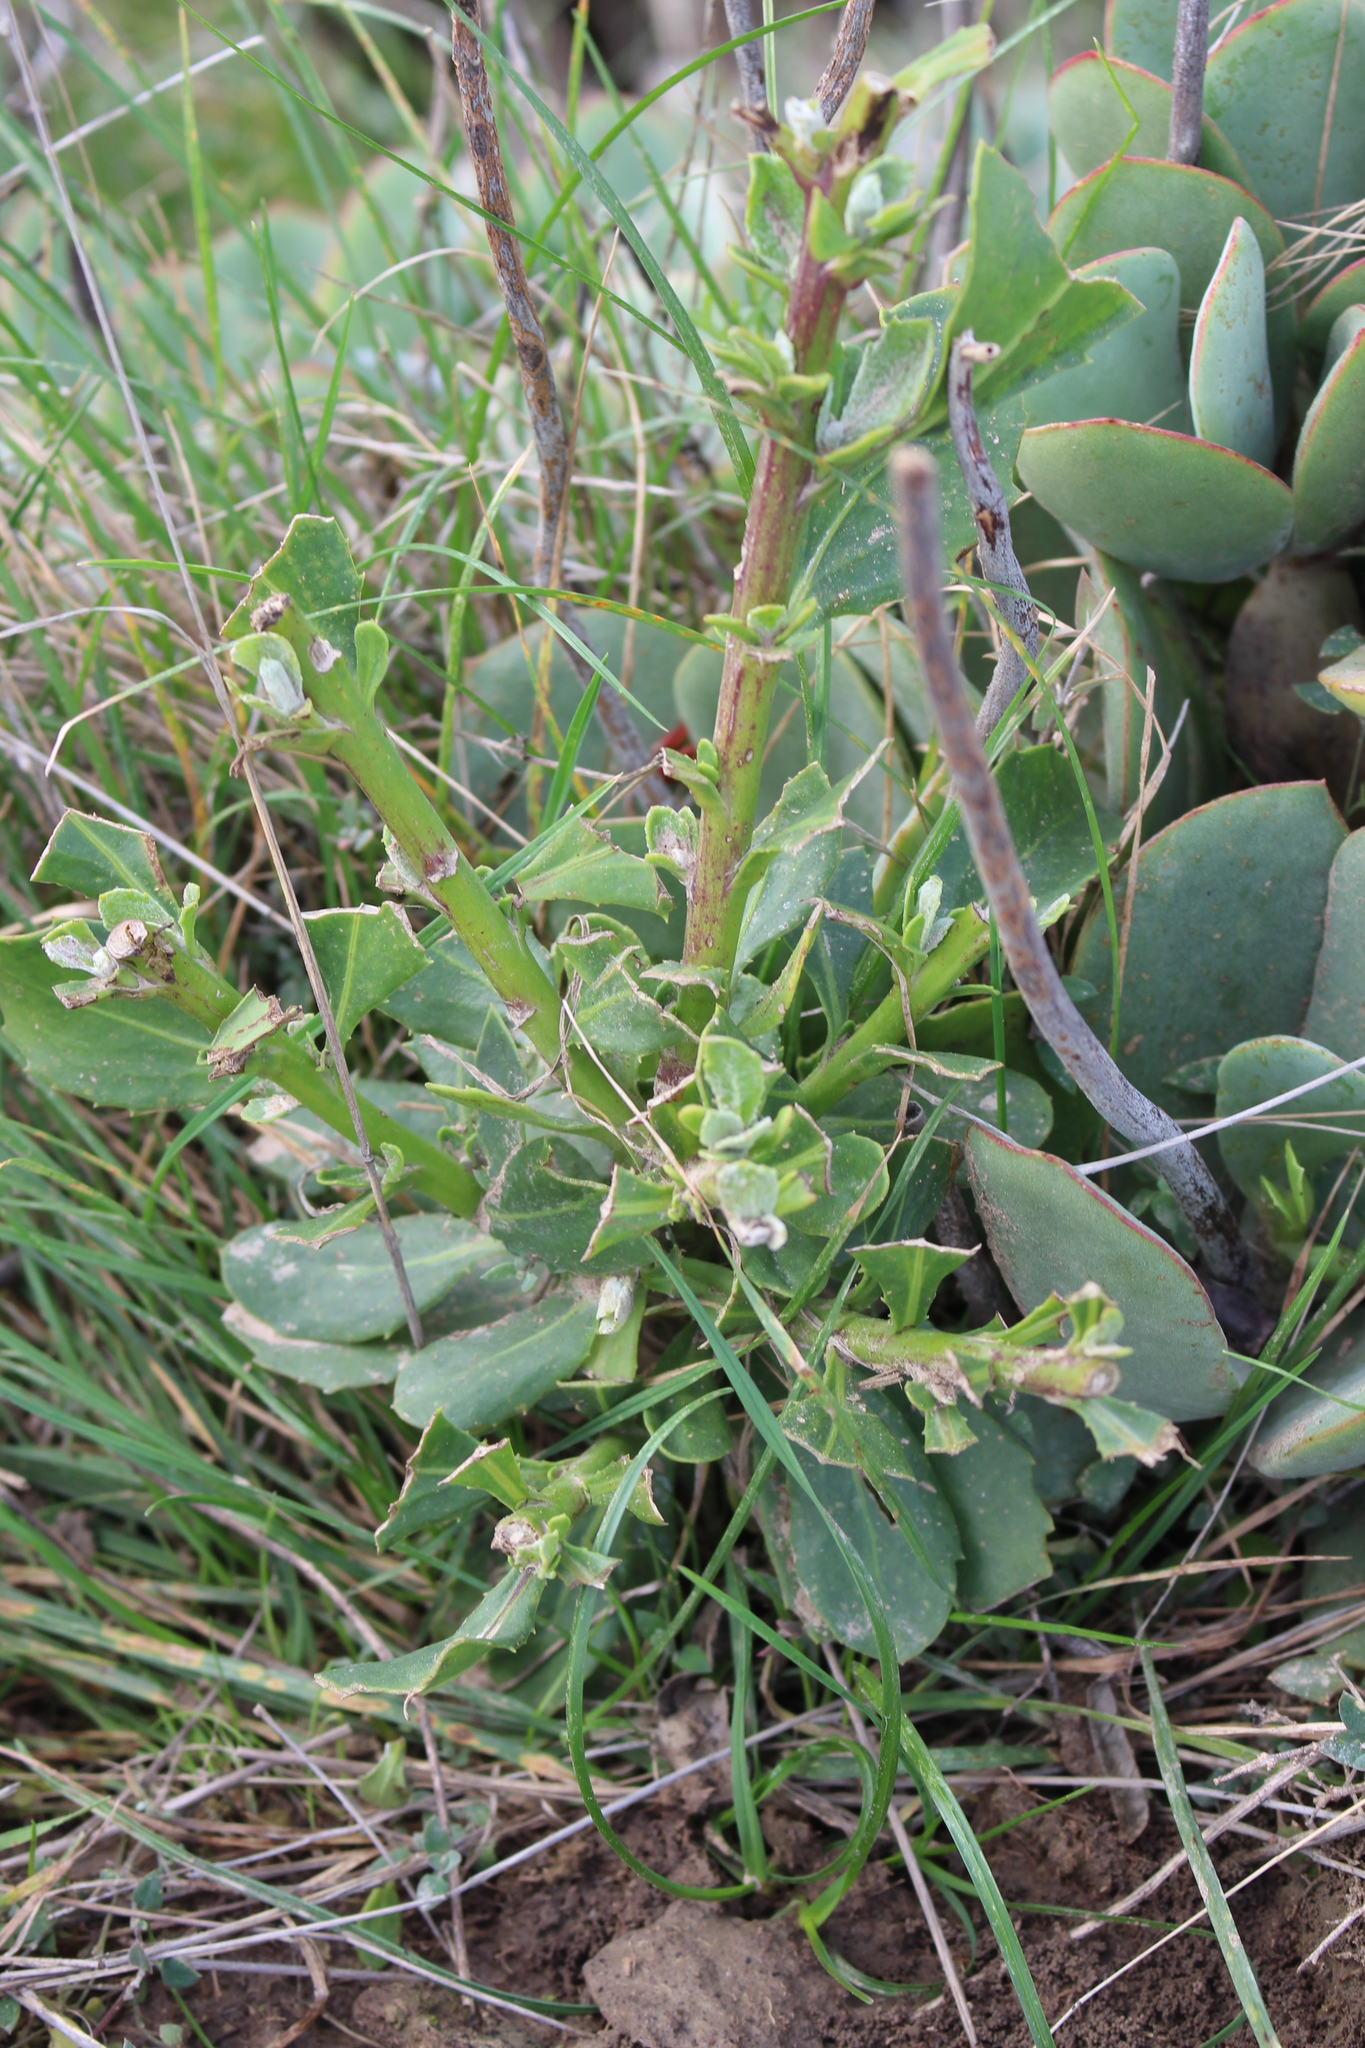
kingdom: Plantae
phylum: Tracheophyta
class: Magnoliopsida
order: Asterales
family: Asteraceae
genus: Osteospermum
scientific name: Osteospermum moniliferum
